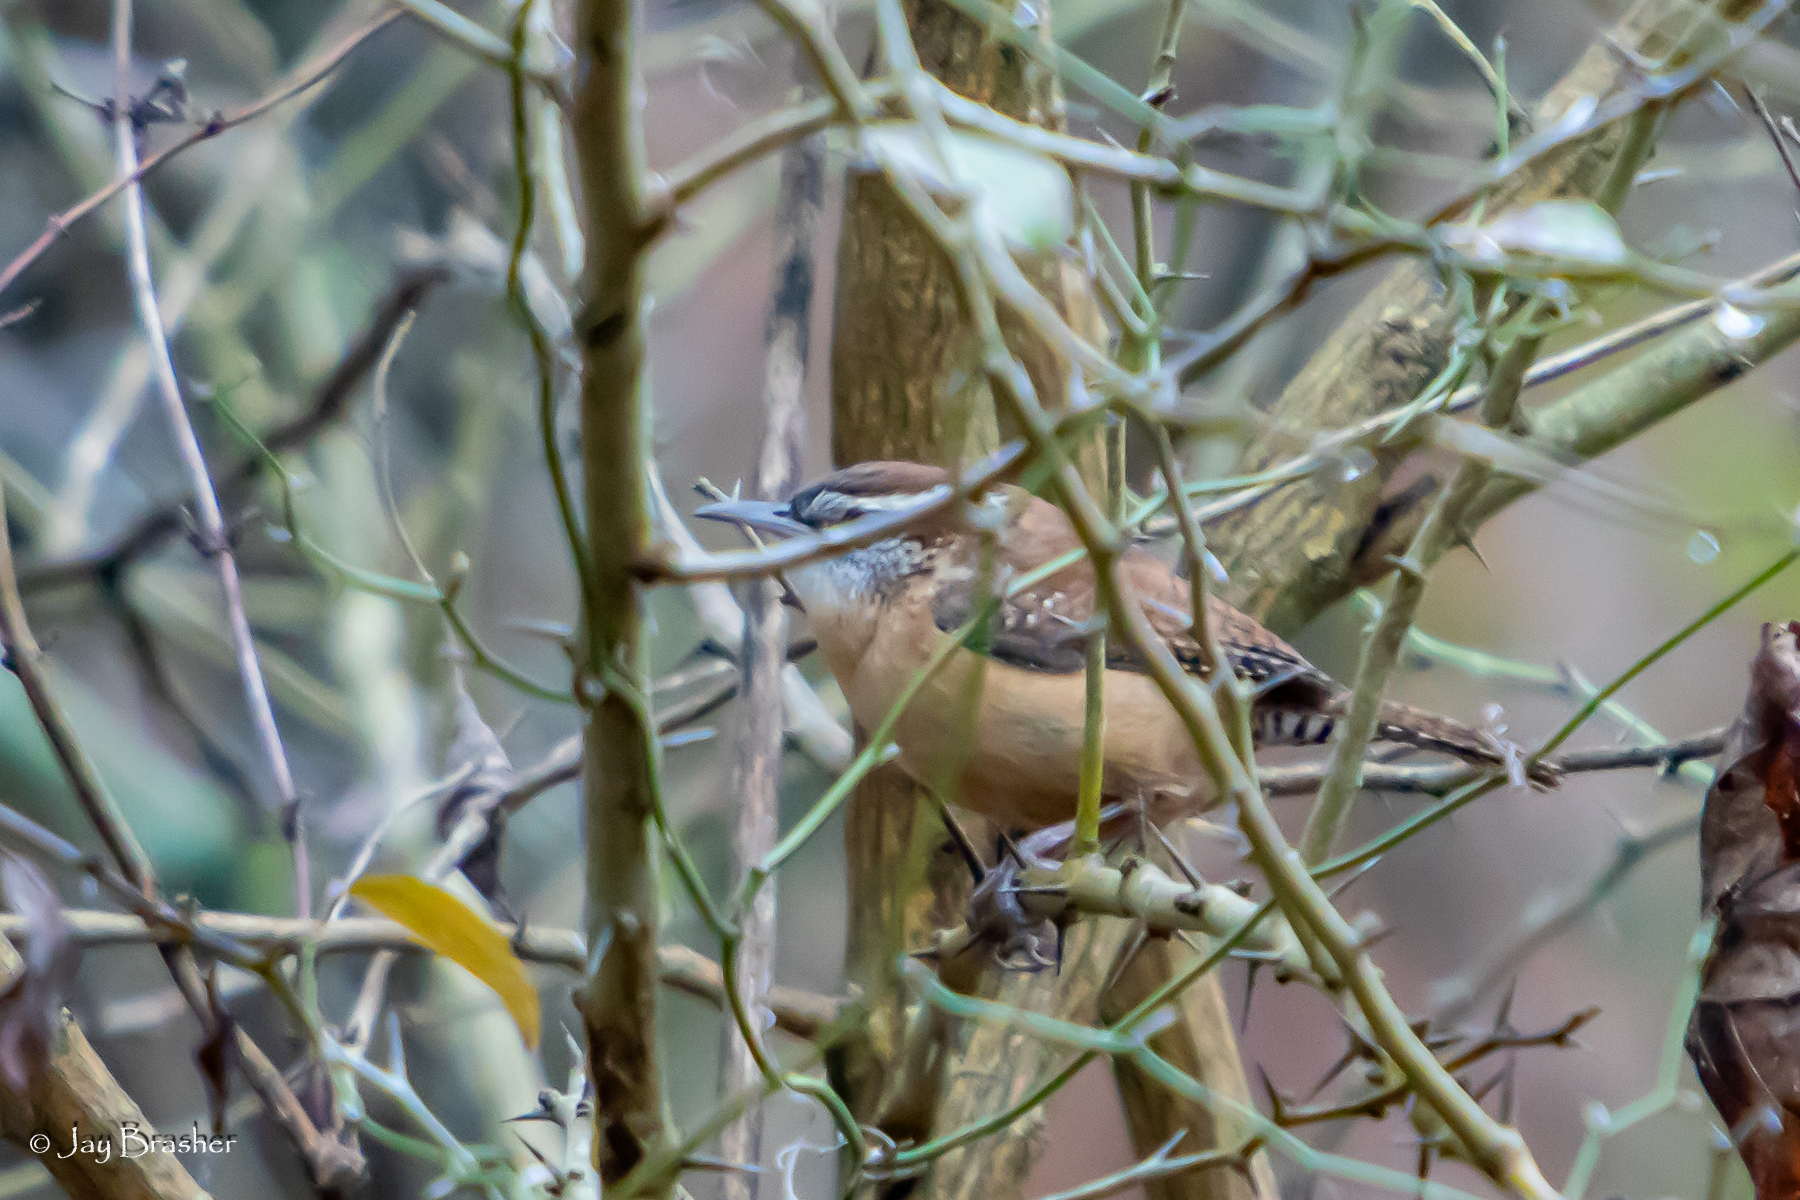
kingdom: Animalia
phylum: Chordata
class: Aves
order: Passeriformes
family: Troglodytidae
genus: Thryothorus
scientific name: Thryothorus ludovicianus
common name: Carolina wren
